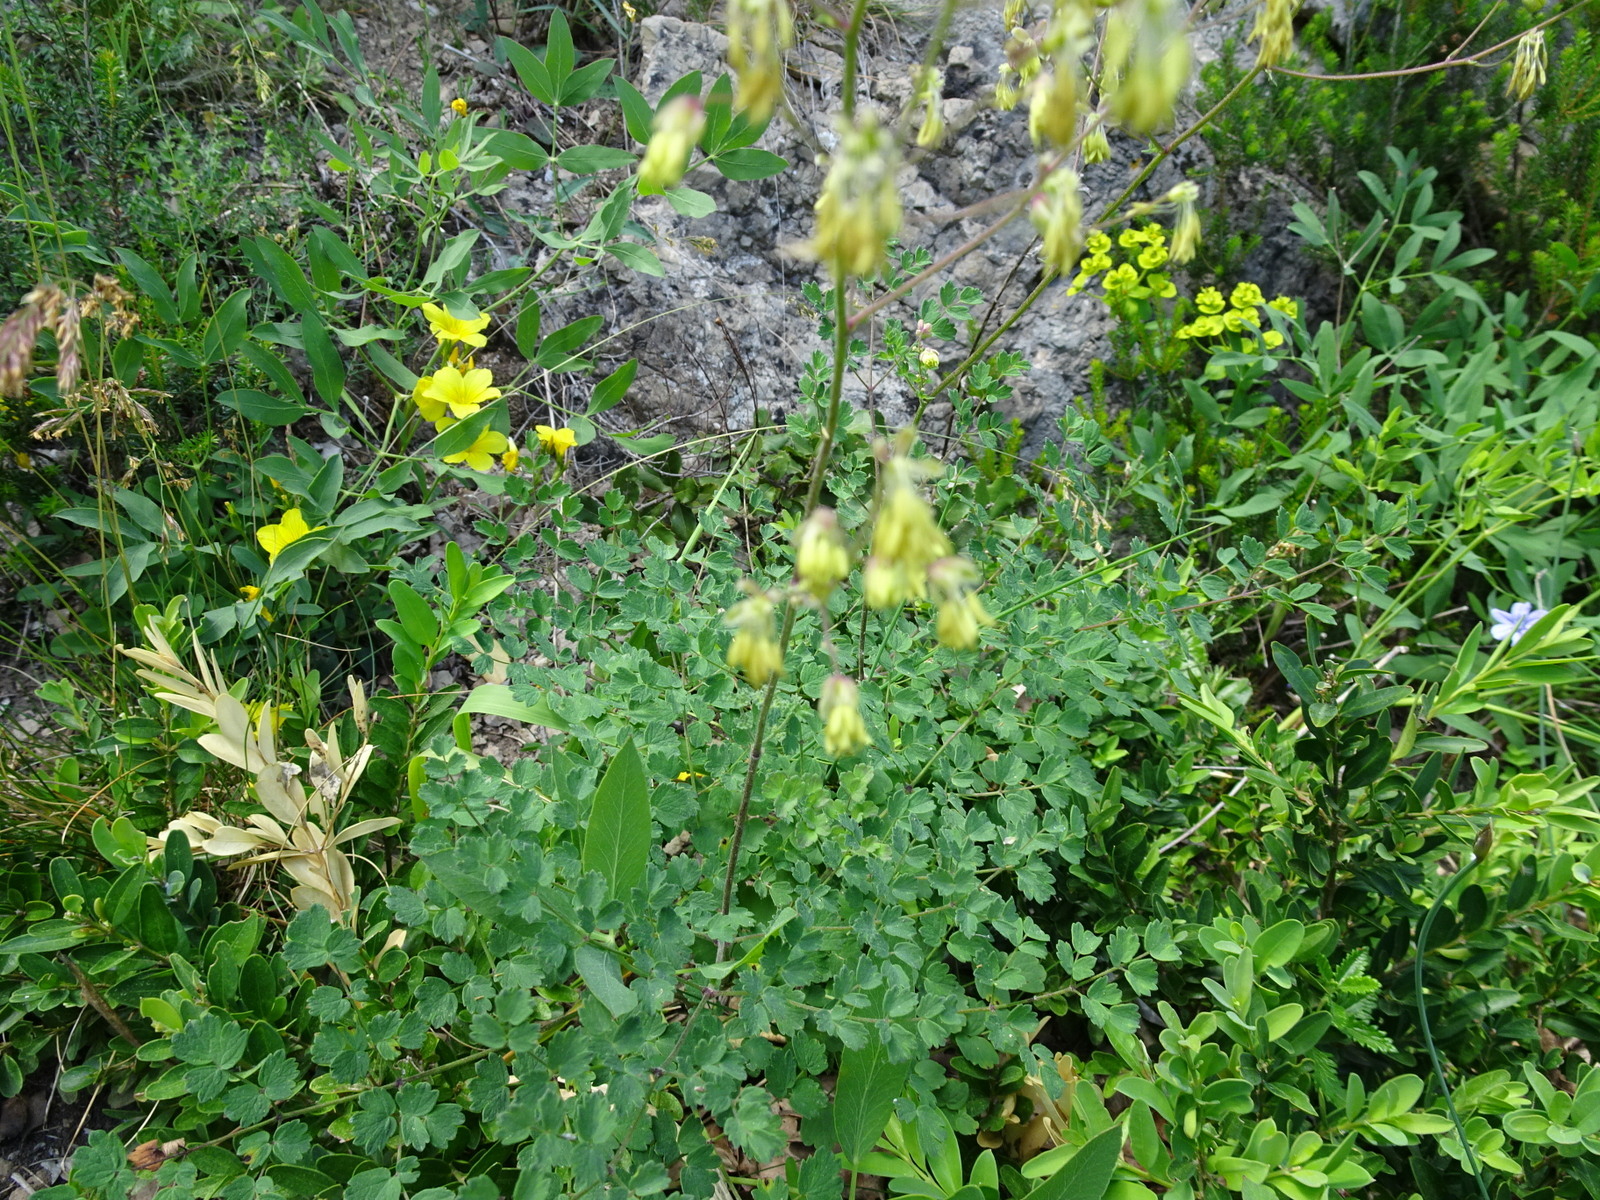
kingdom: Plantae
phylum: Tracheophyta
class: Magnoliopsida
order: Ranunculales
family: Ranunculaceae
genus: Thalictrum
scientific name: Thalictrum minus
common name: Lesser meadow-rue
